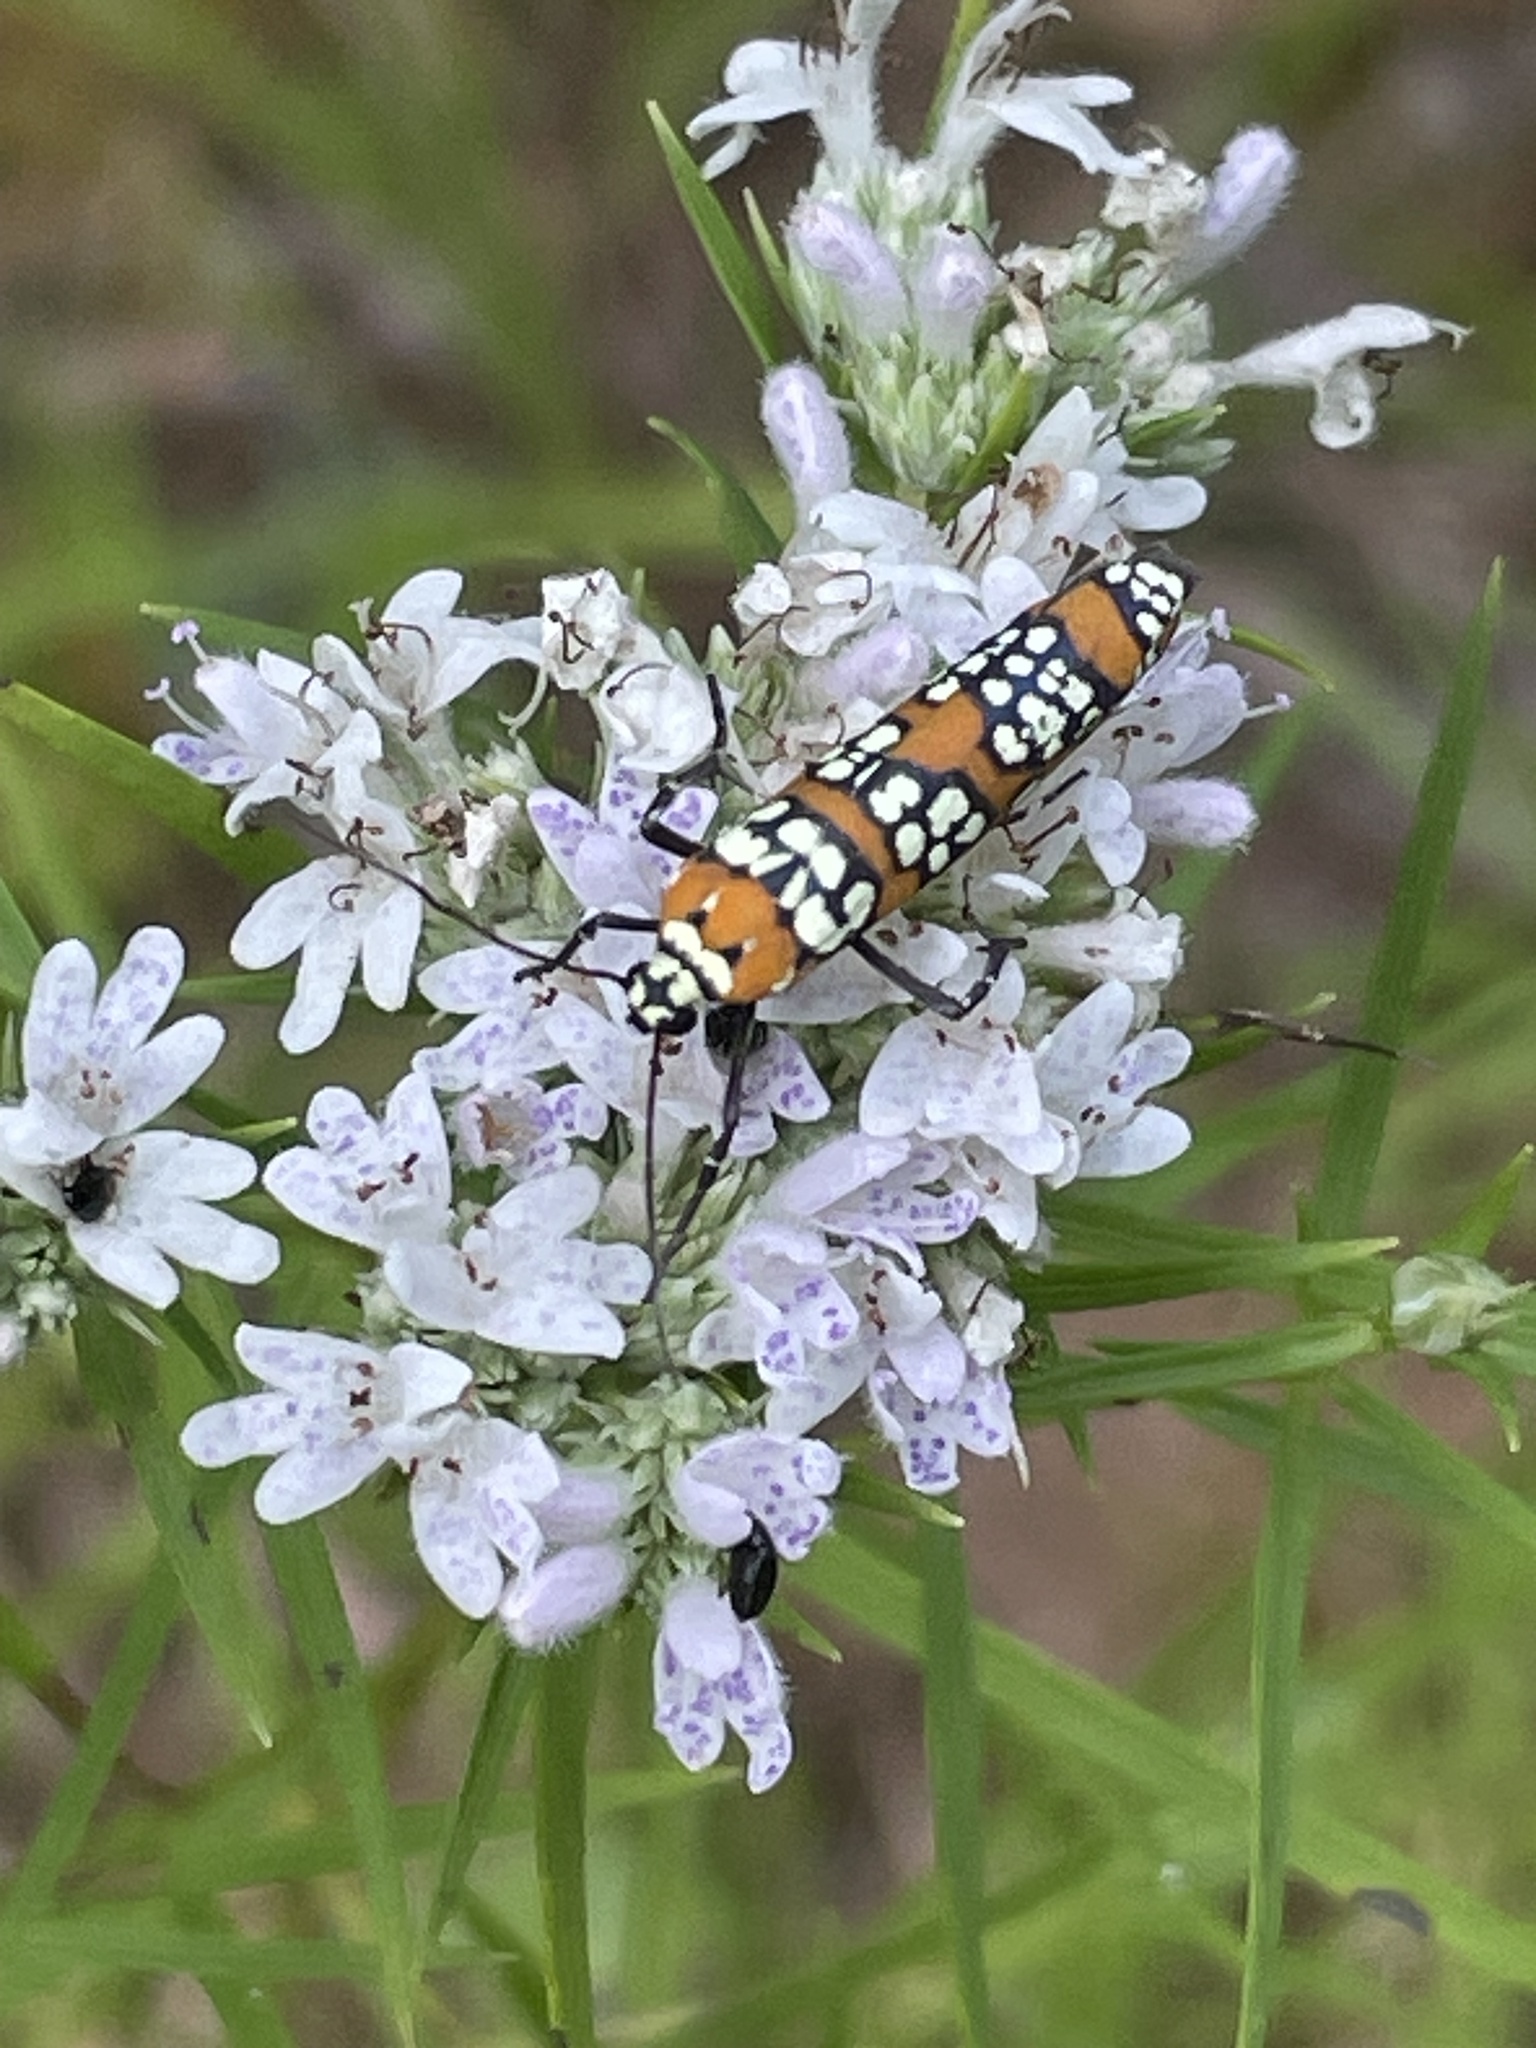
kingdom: Animalia
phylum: Arthropoda
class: Insecta
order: Lepidoptera
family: Attevidae
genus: Atteva
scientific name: Atteva punctella
